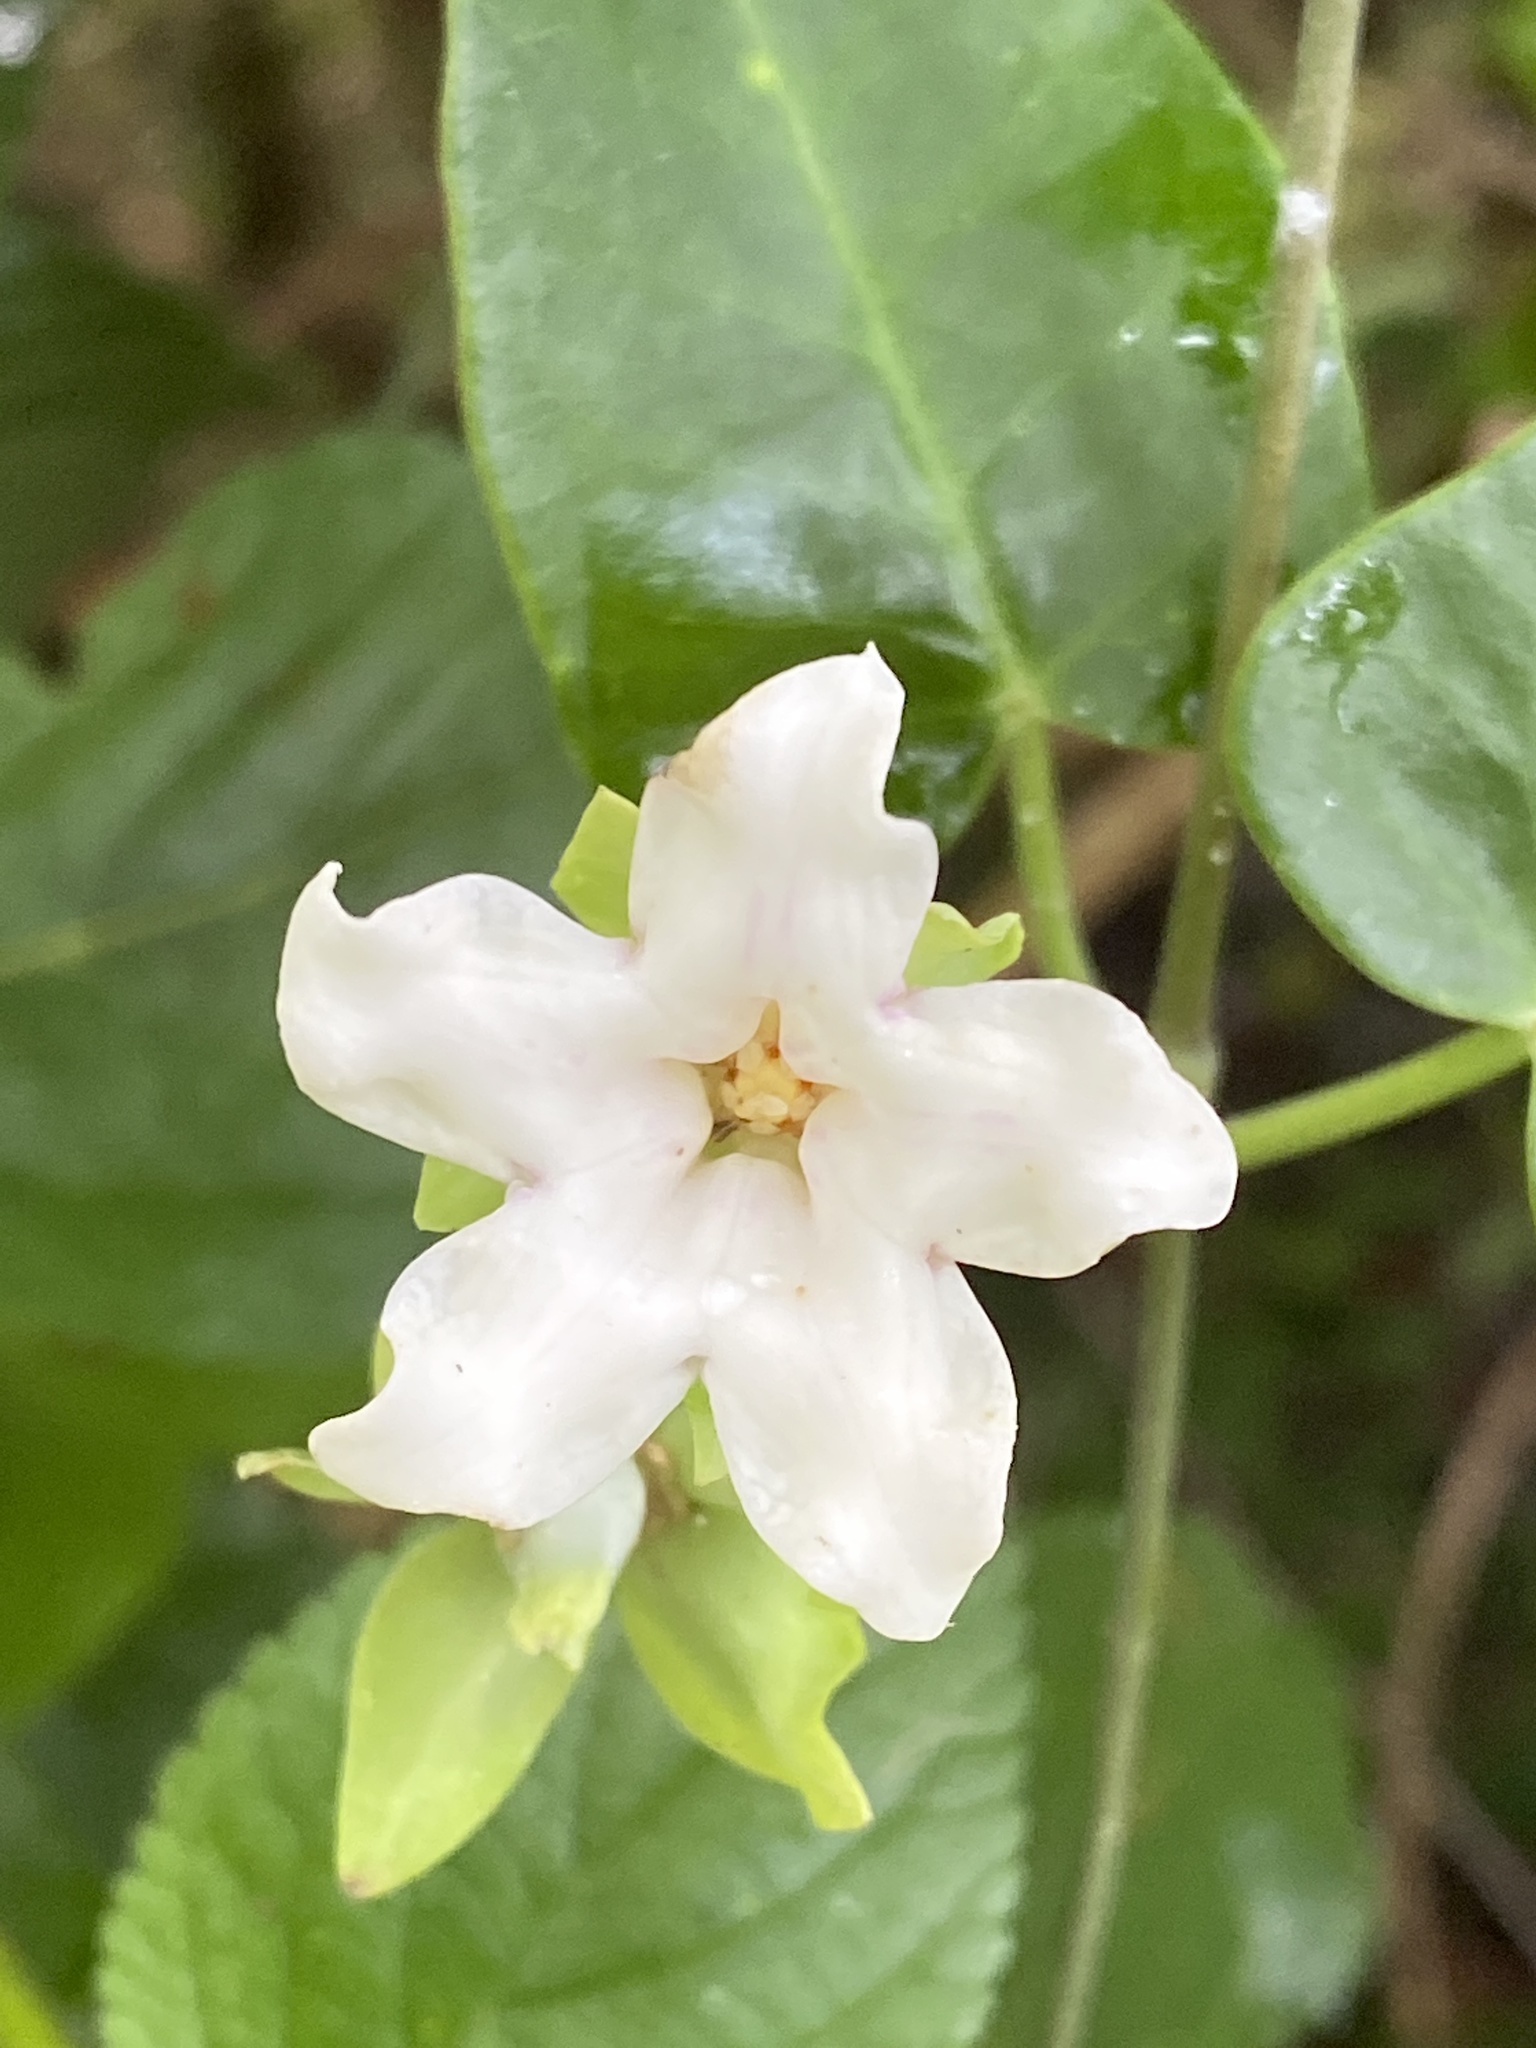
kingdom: Plantae
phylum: Tracheophyta
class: Magnoliopsida
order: Gentianales
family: Apocynaceae
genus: Araujia
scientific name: Araujia sericifera
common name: White bladderflower
